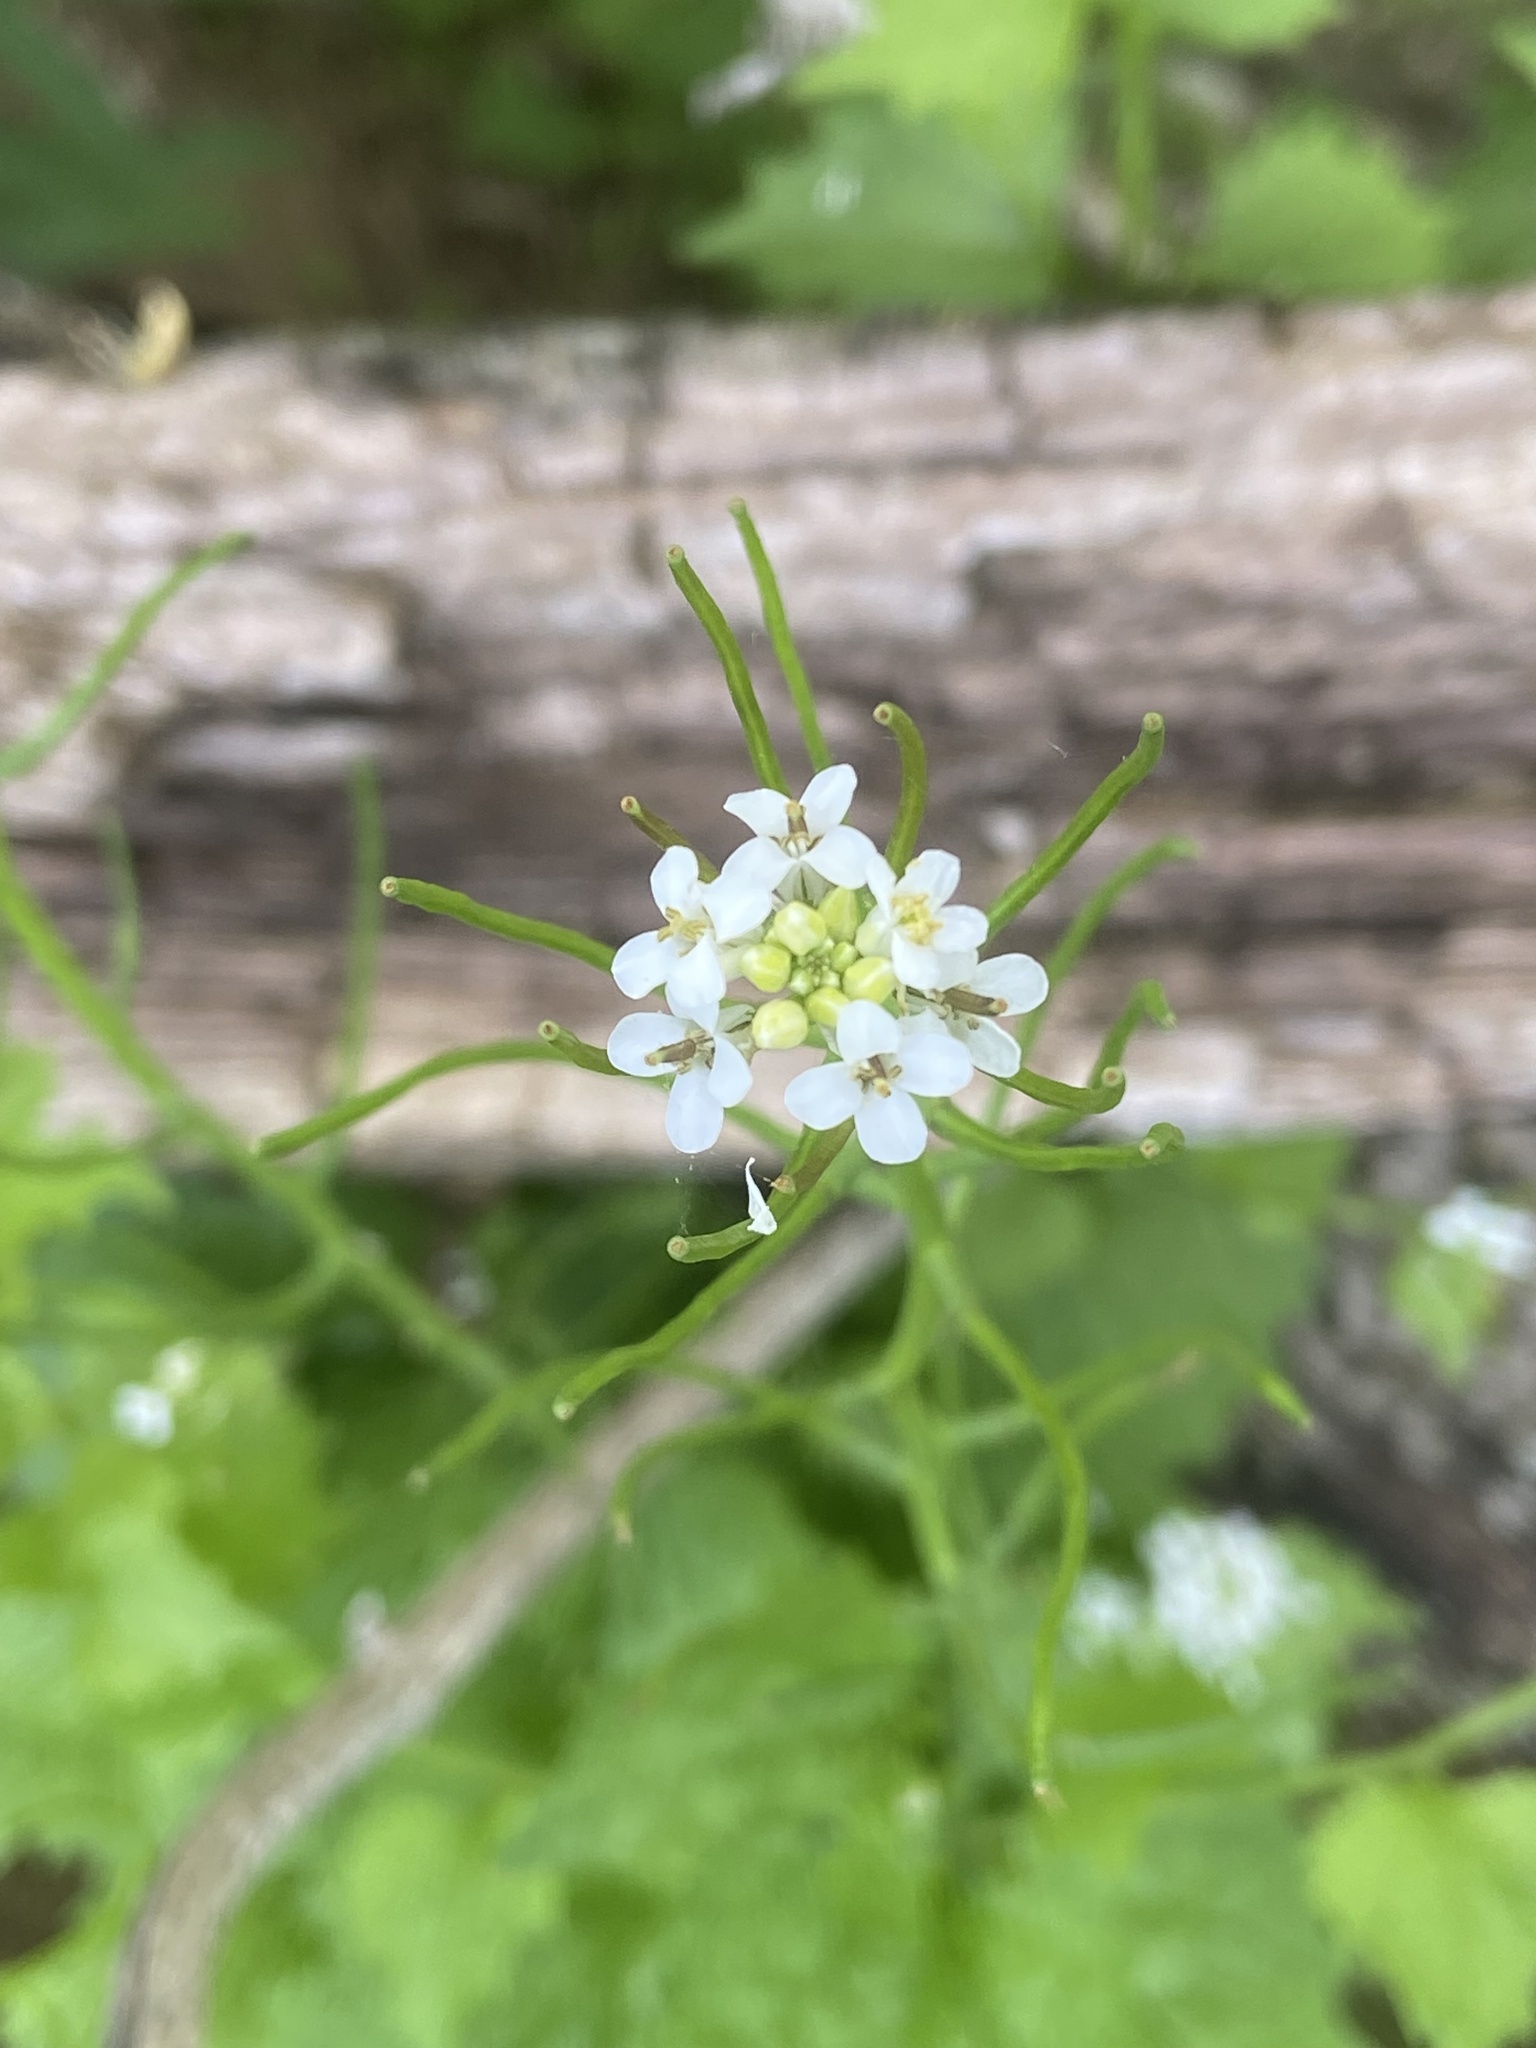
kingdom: Plantae
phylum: Tracheophyta
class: Magnoliopsida
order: Brassicales
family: Brassicaceae
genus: Alliaria
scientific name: Alliaria petiolata
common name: Garlic mustard
